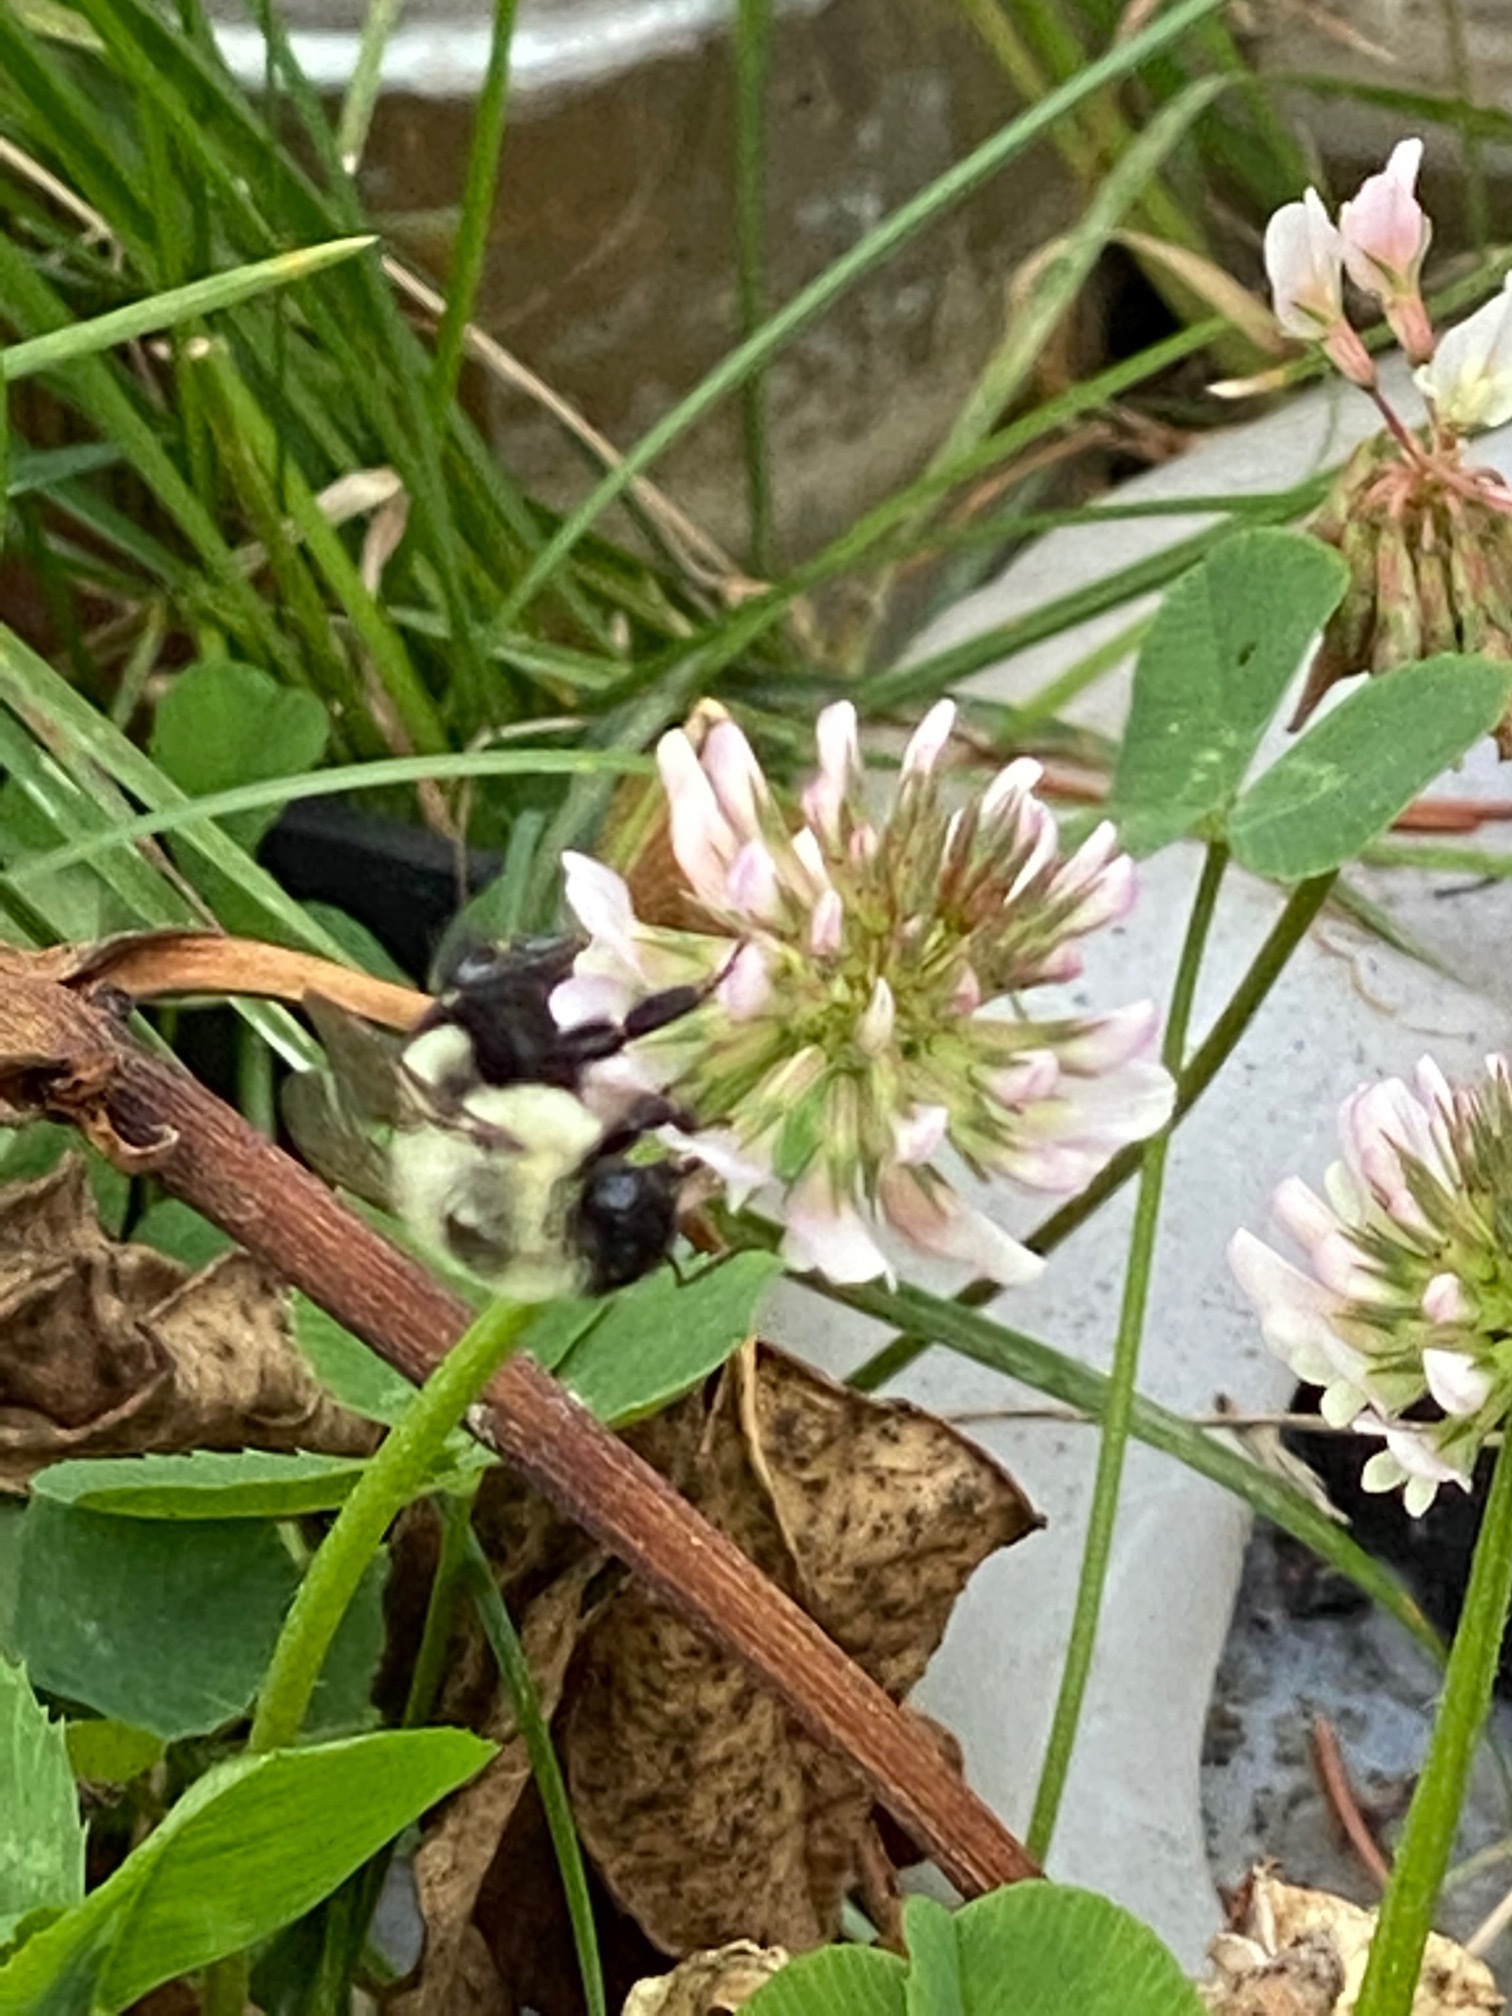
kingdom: Animalia
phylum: Arthropoda
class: Insecta
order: Hymenoptera
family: Apidae
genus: Bombus
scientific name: Bombus impatiens
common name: Common eastern bumble bee
